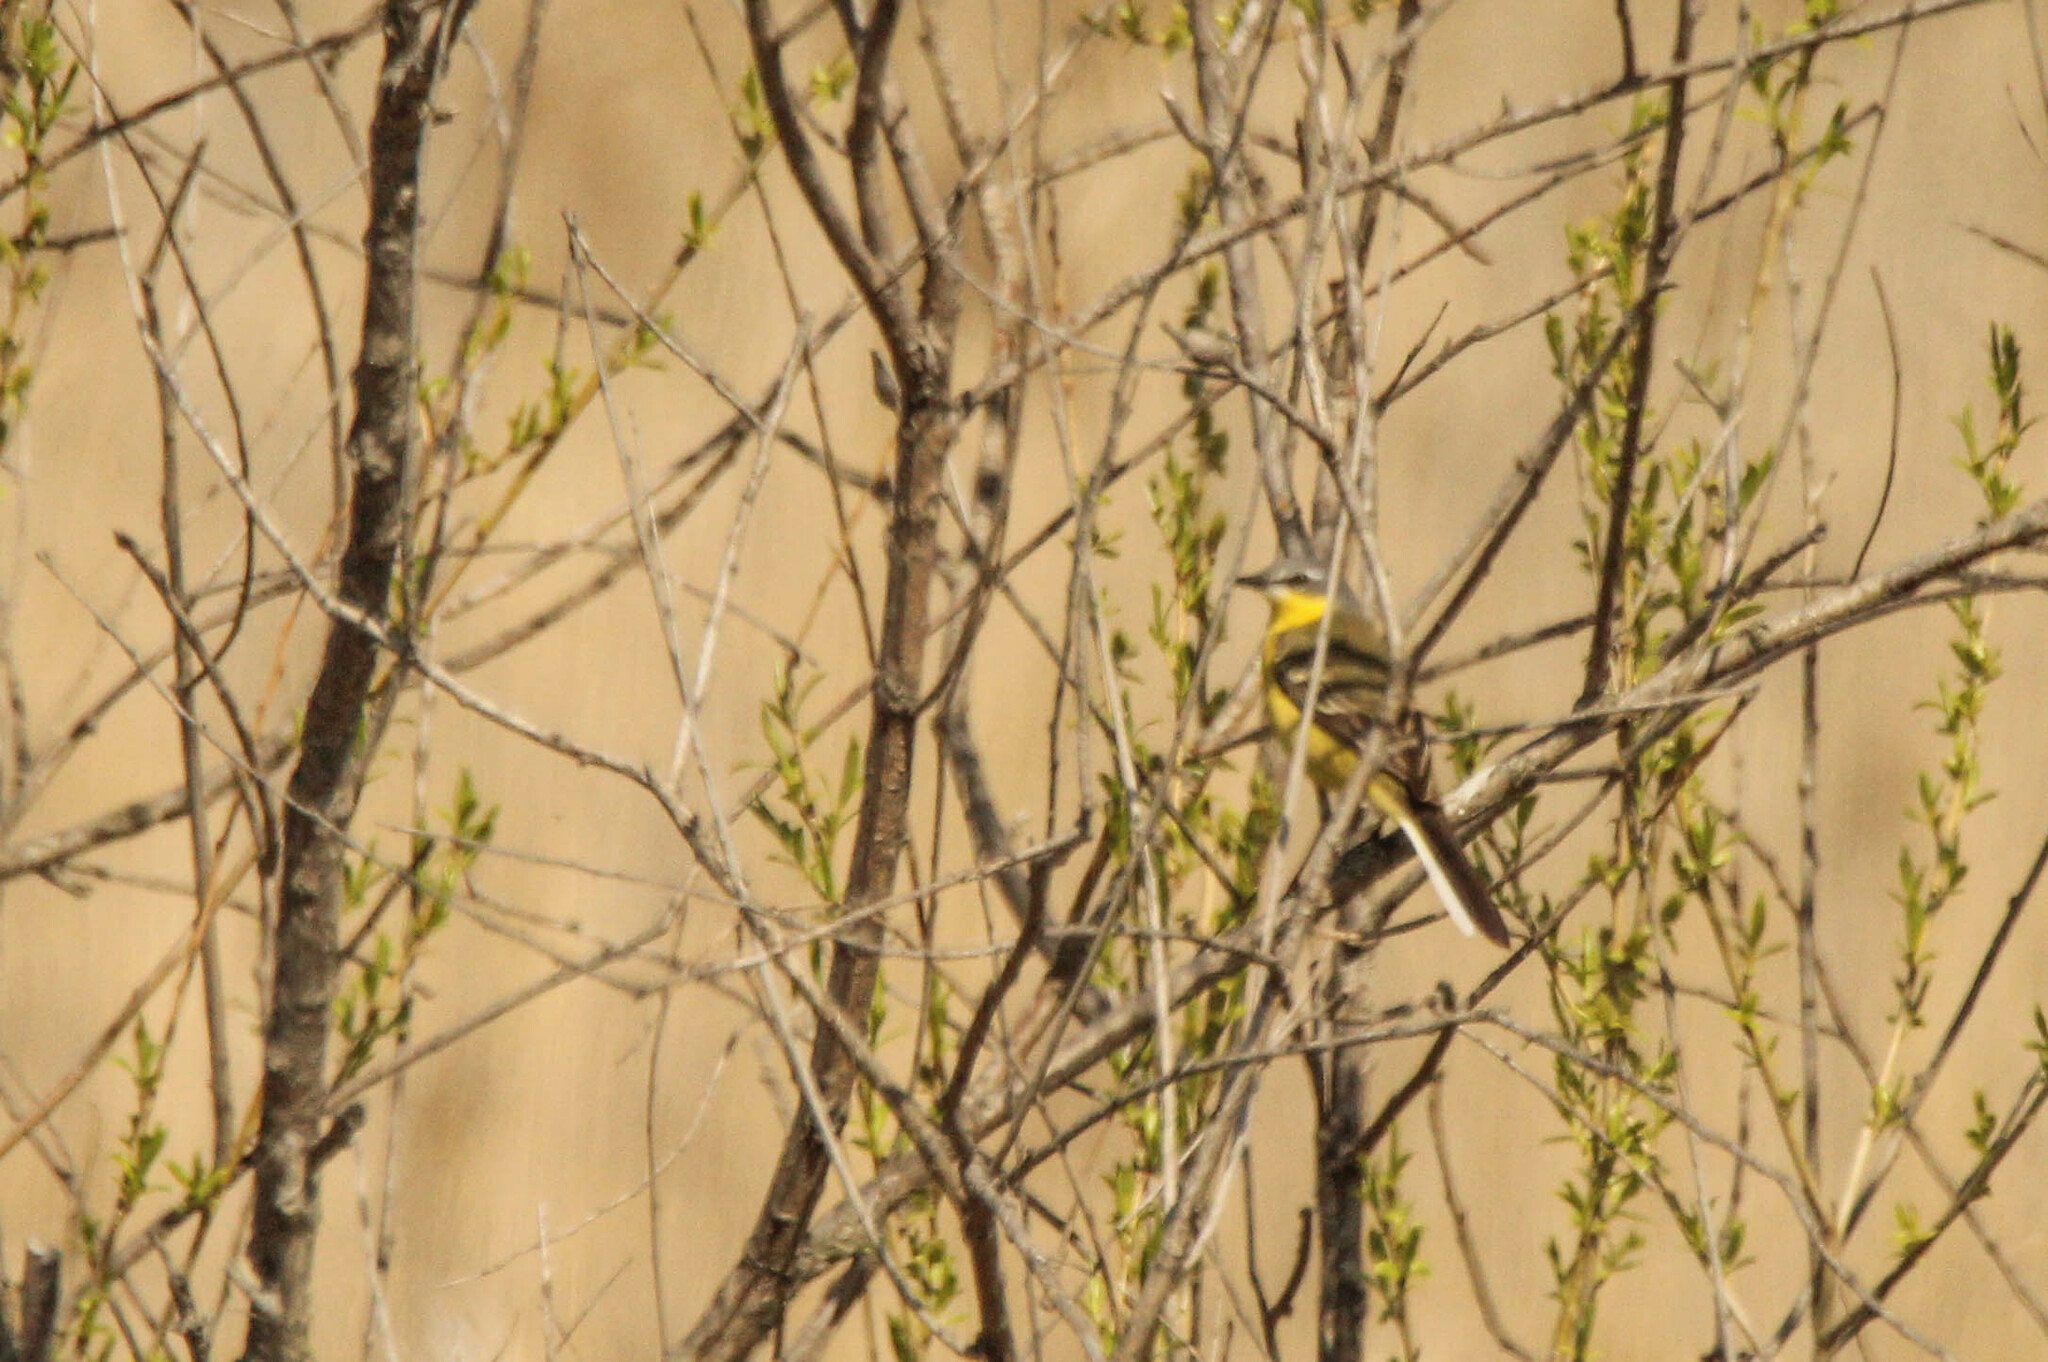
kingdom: Animalia
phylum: Chordata
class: Aves
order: Passeriformes
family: Motacillidae
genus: Motacilla
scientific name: Motacilla tschutschensis
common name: Eastern yellow wagtail
